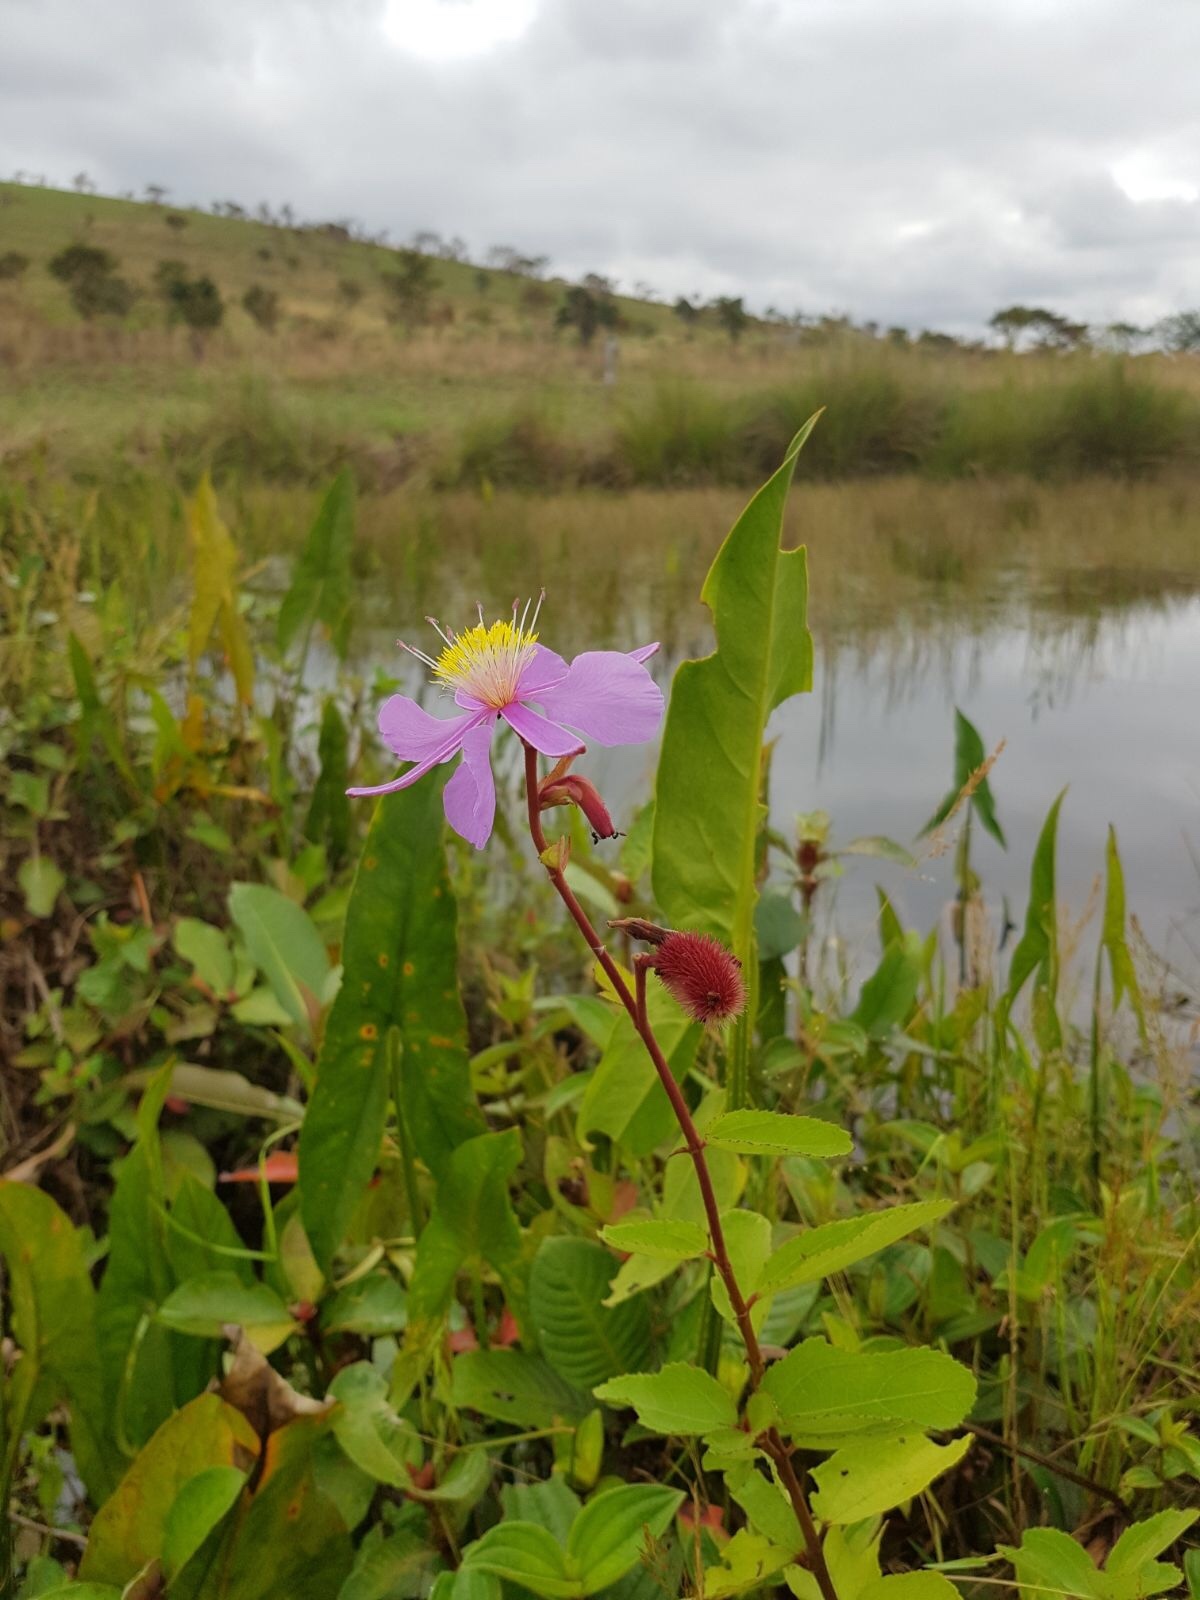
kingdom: Plantae
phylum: Tracheophyta
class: Magnoliopsida
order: Malvales
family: Malvaceae
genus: Clappertonia
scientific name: Clappertonia ficifolia
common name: Bolo-bolo
